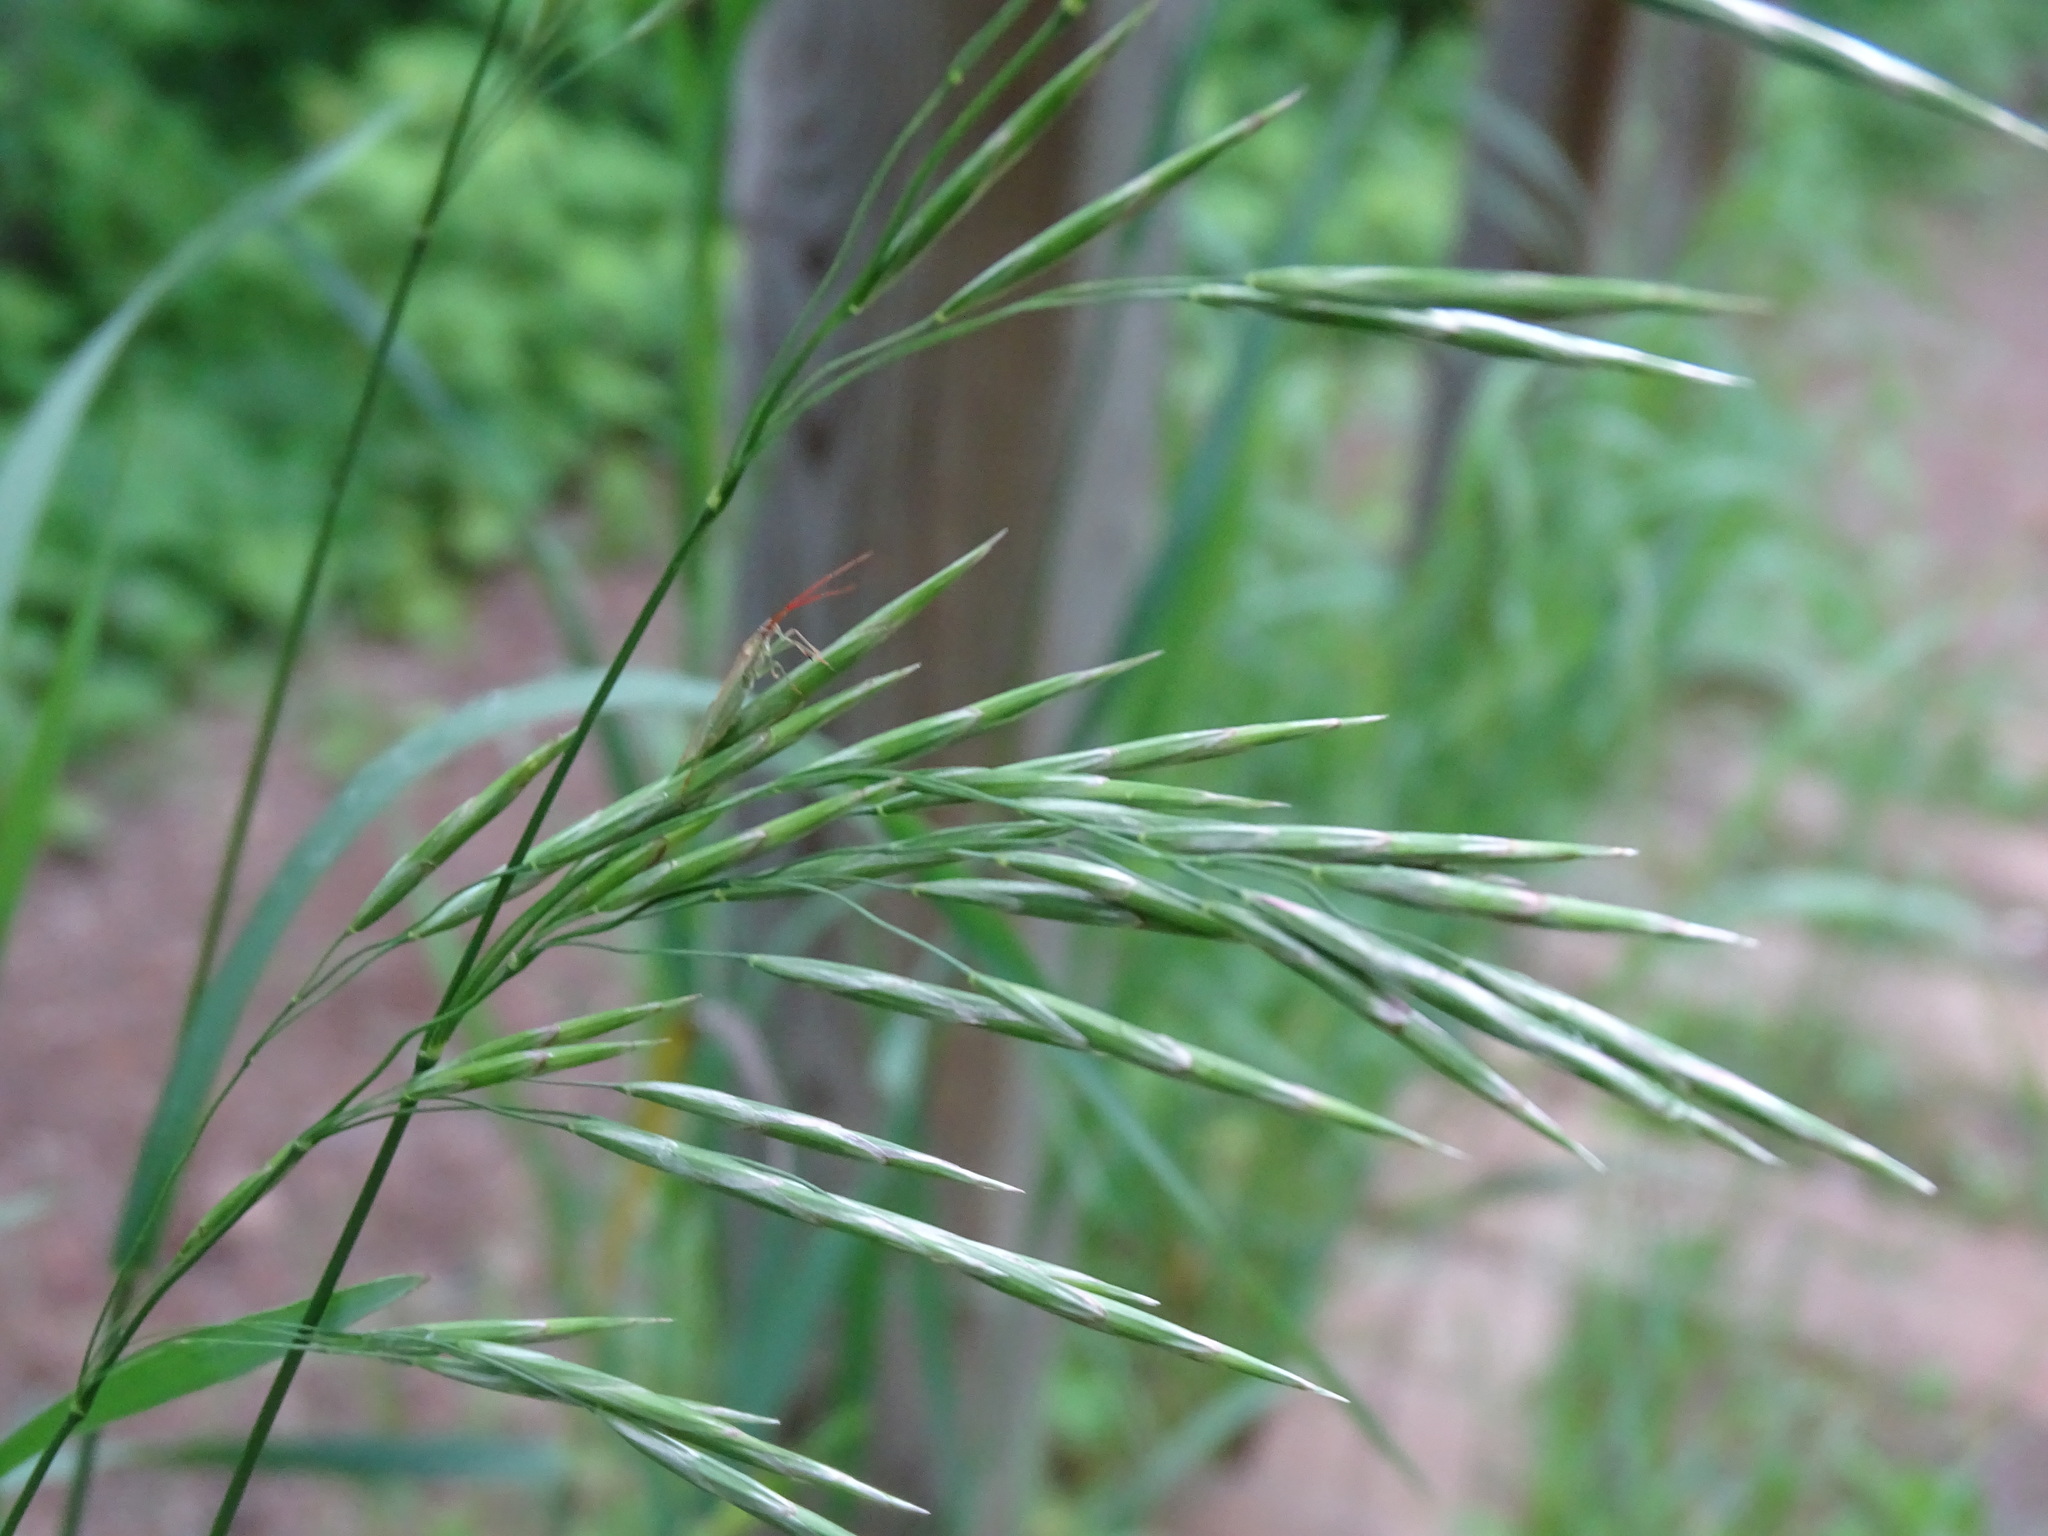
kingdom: Plantae
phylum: Tracheophyta
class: Liliopsida
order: Poales
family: Poaceae
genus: Bromus
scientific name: Bromus inermis
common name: Smooth brome
